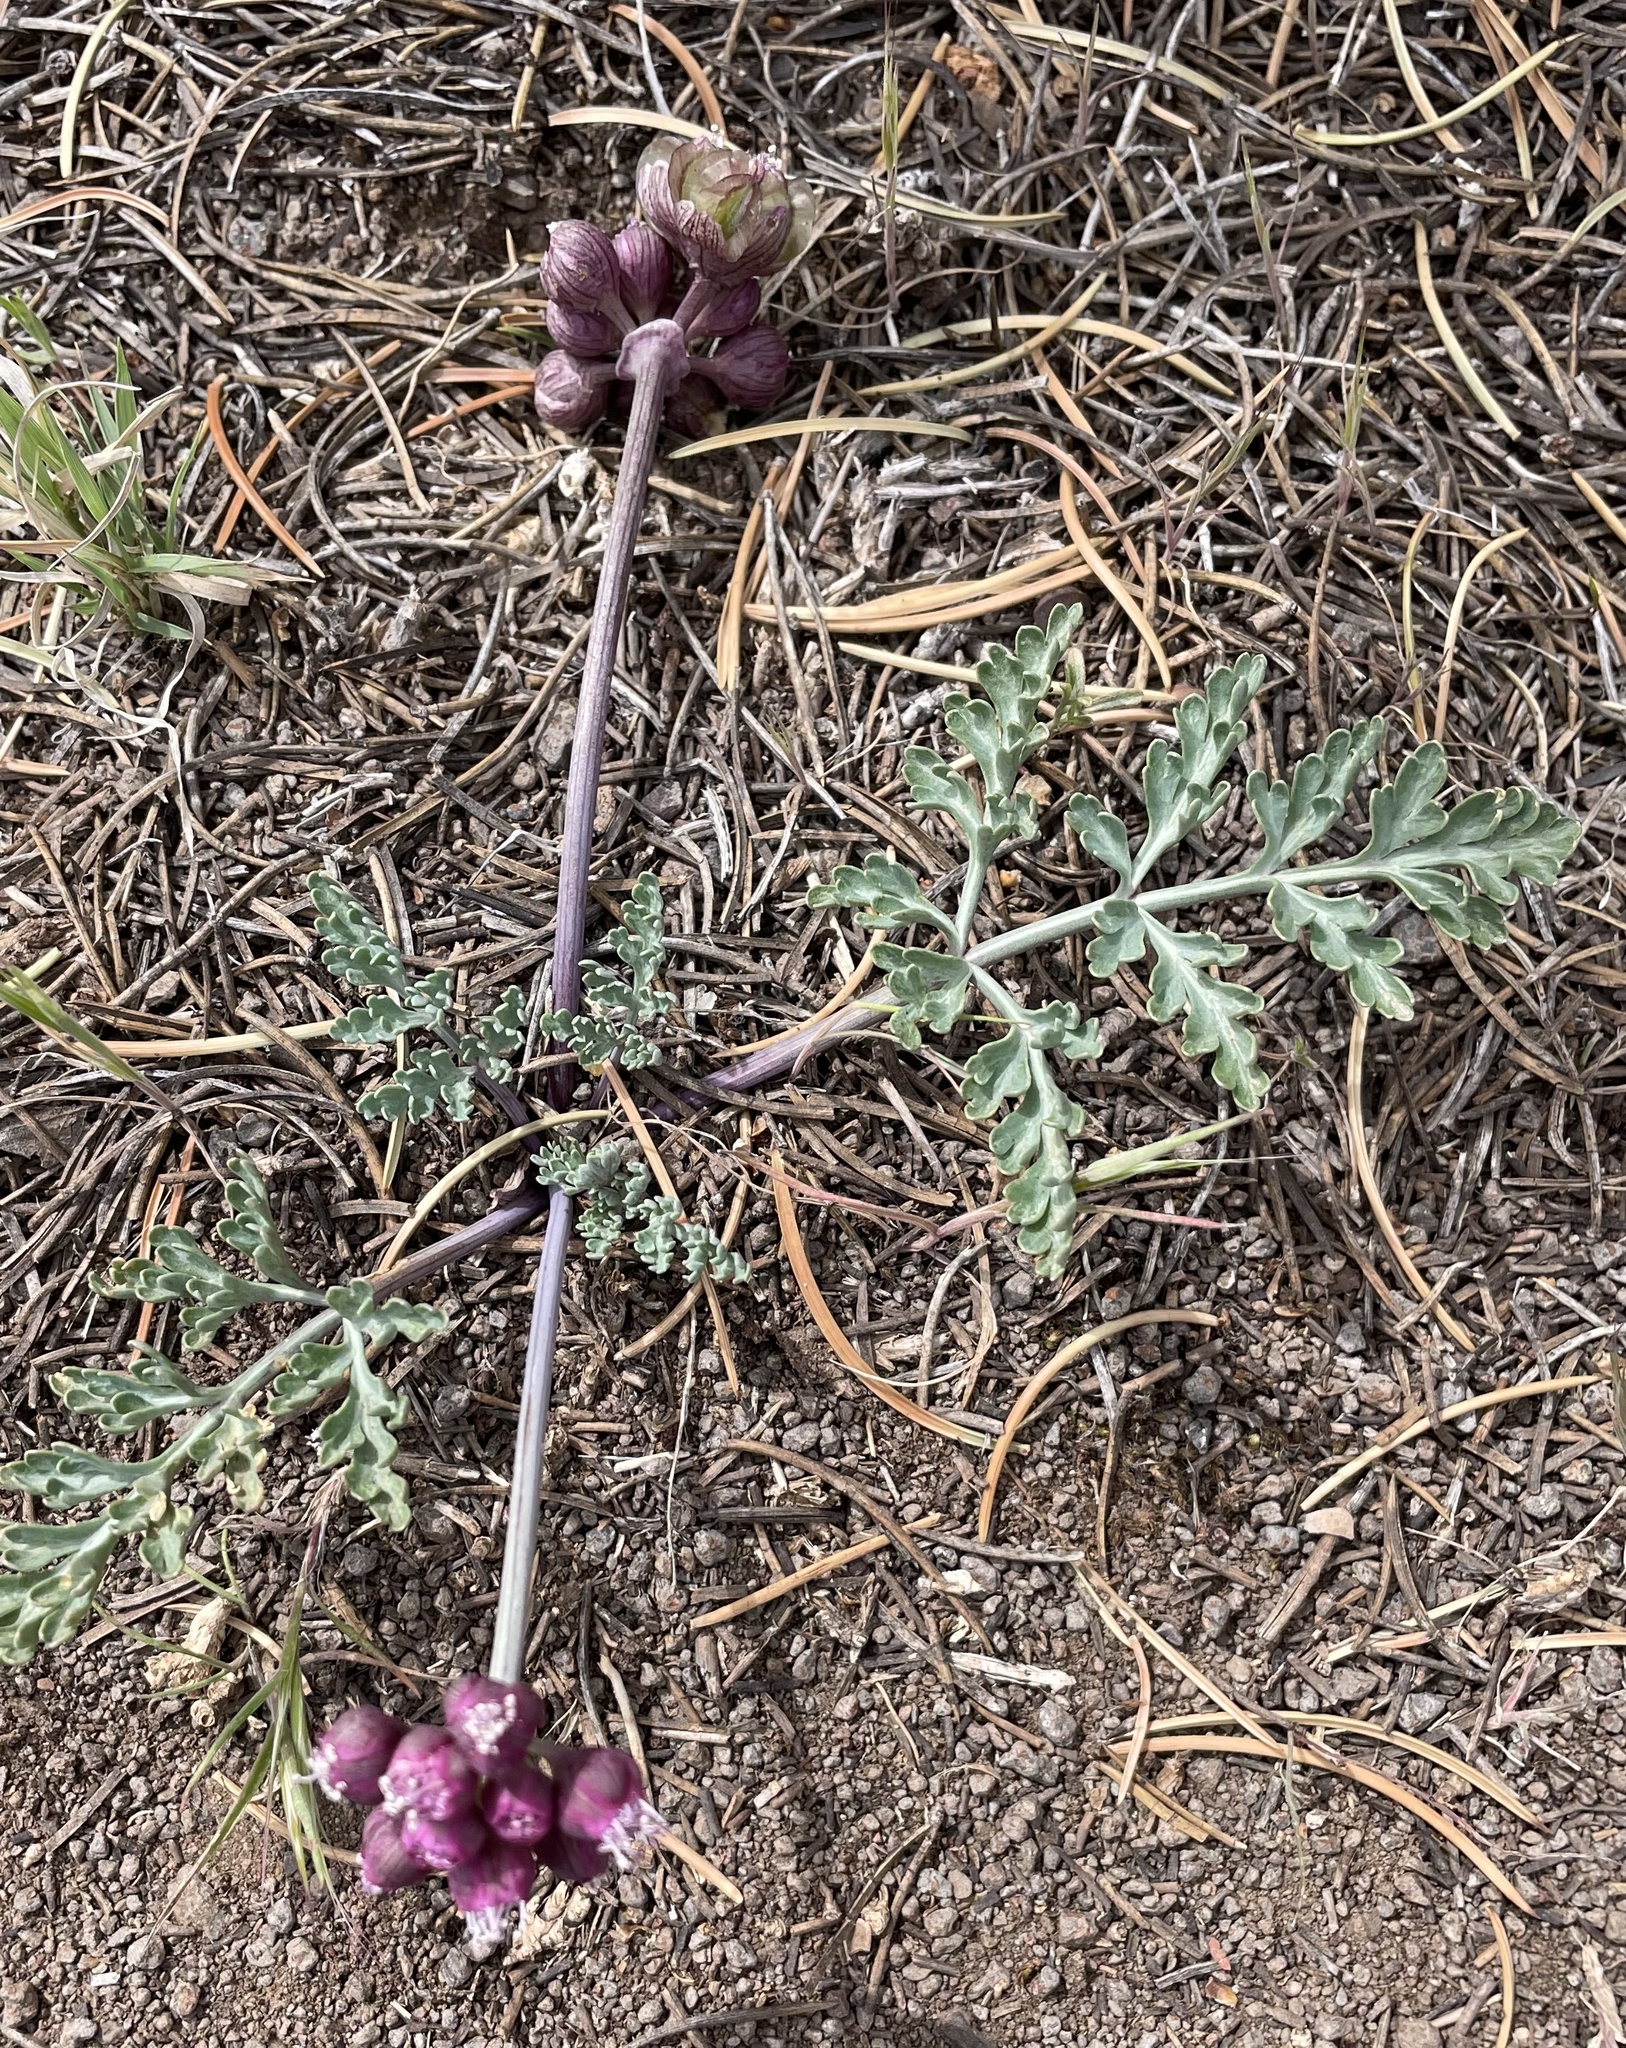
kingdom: Plantae
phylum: Tracheophyta
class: Magnoliopsida
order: Apiales
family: Apiaceae
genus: Vesper
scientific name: Vesper multinervatus
